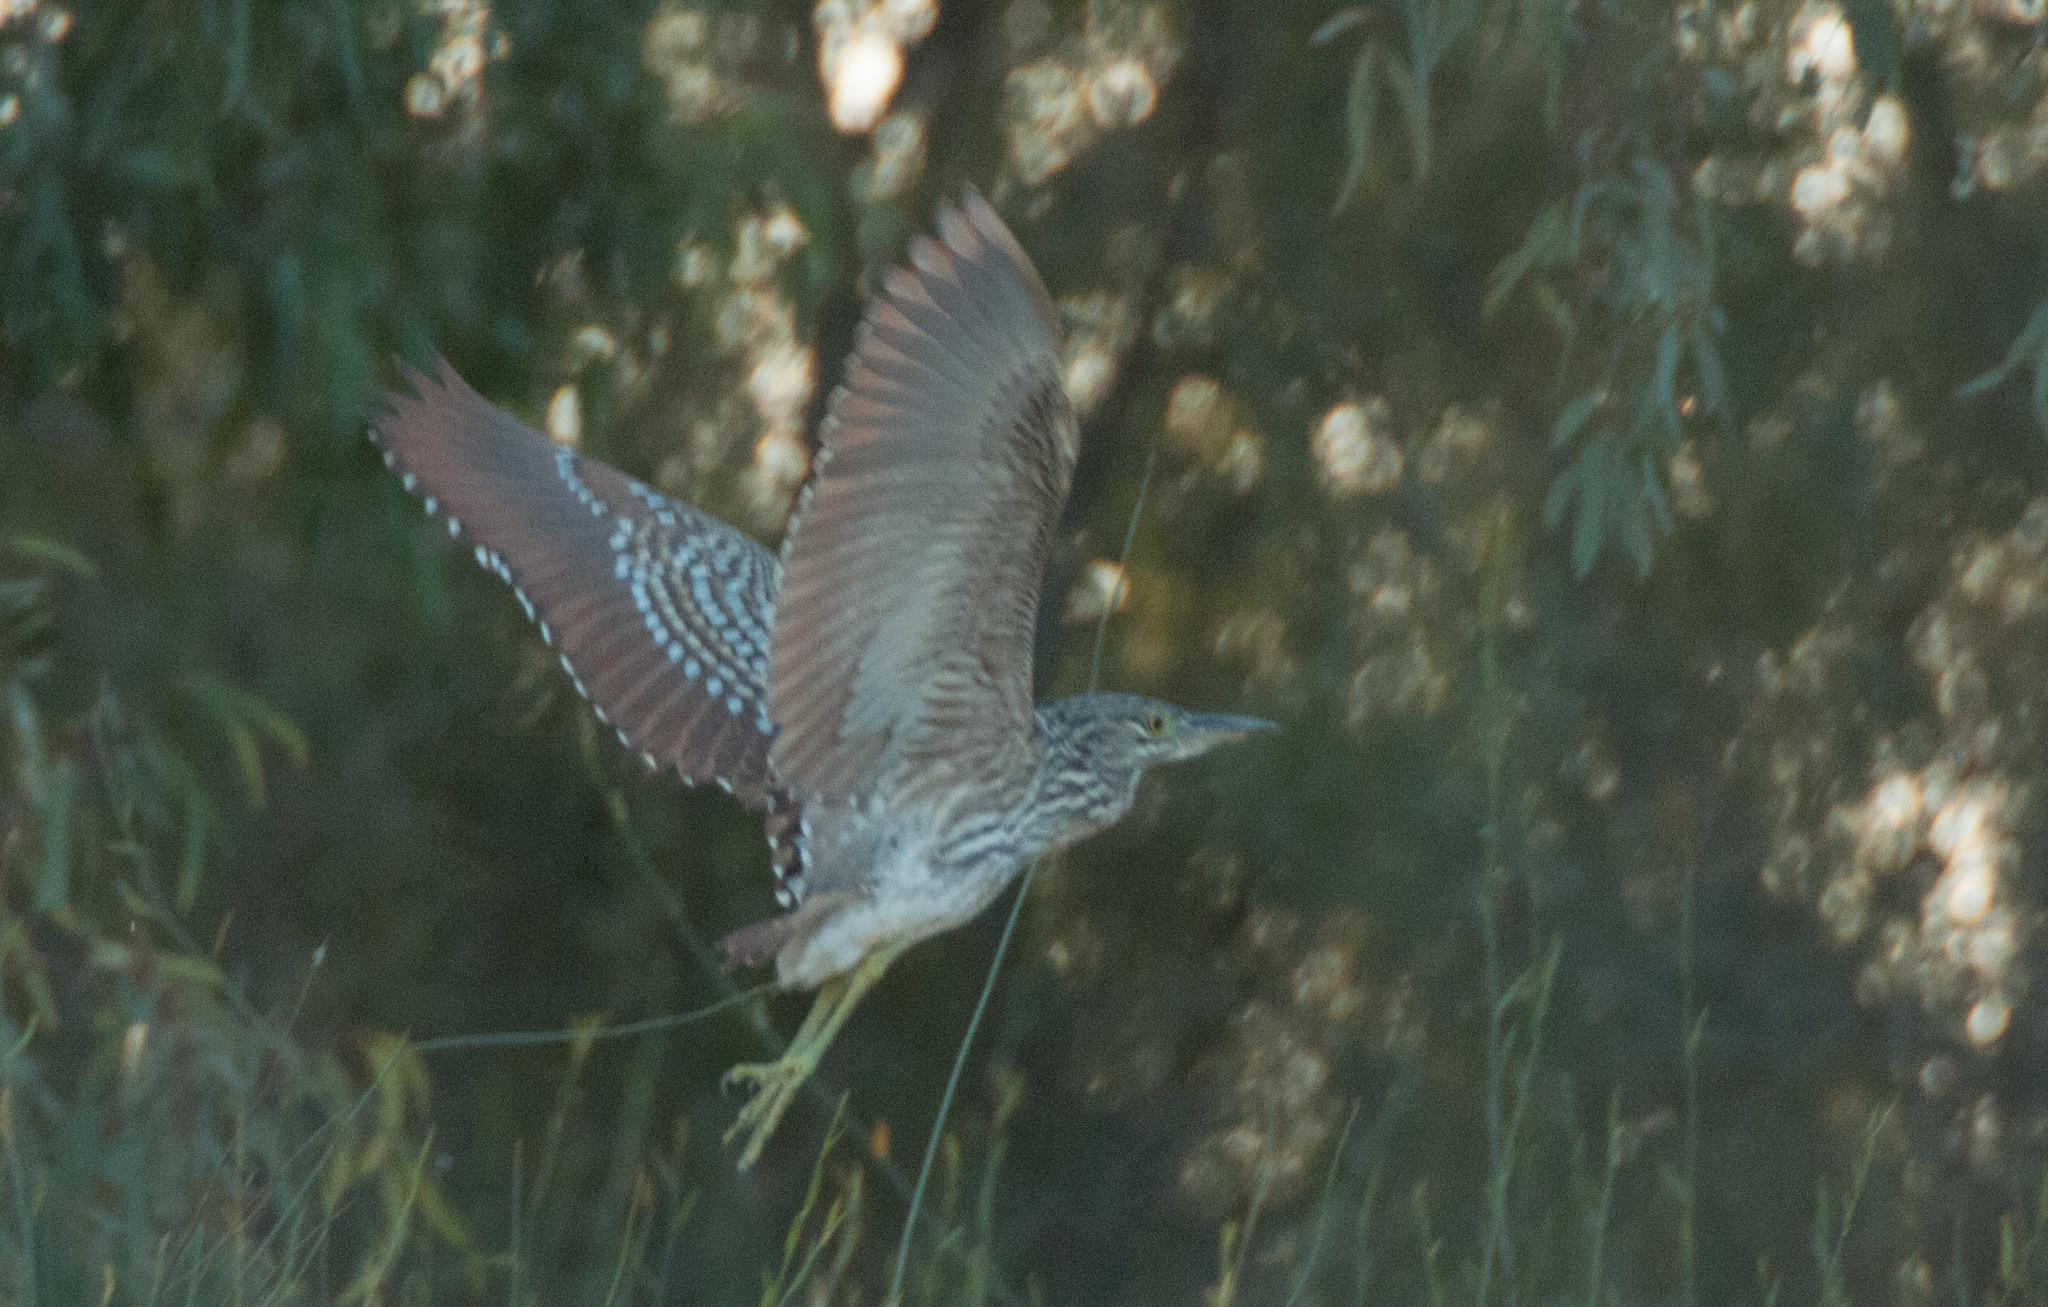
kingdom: Animalia
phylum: Chordata
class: Aves
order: Pelecaniformes
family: Ardeidae
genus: Nycticorax
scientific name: Nycticorax caledonicus
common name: Rufous night-heron
